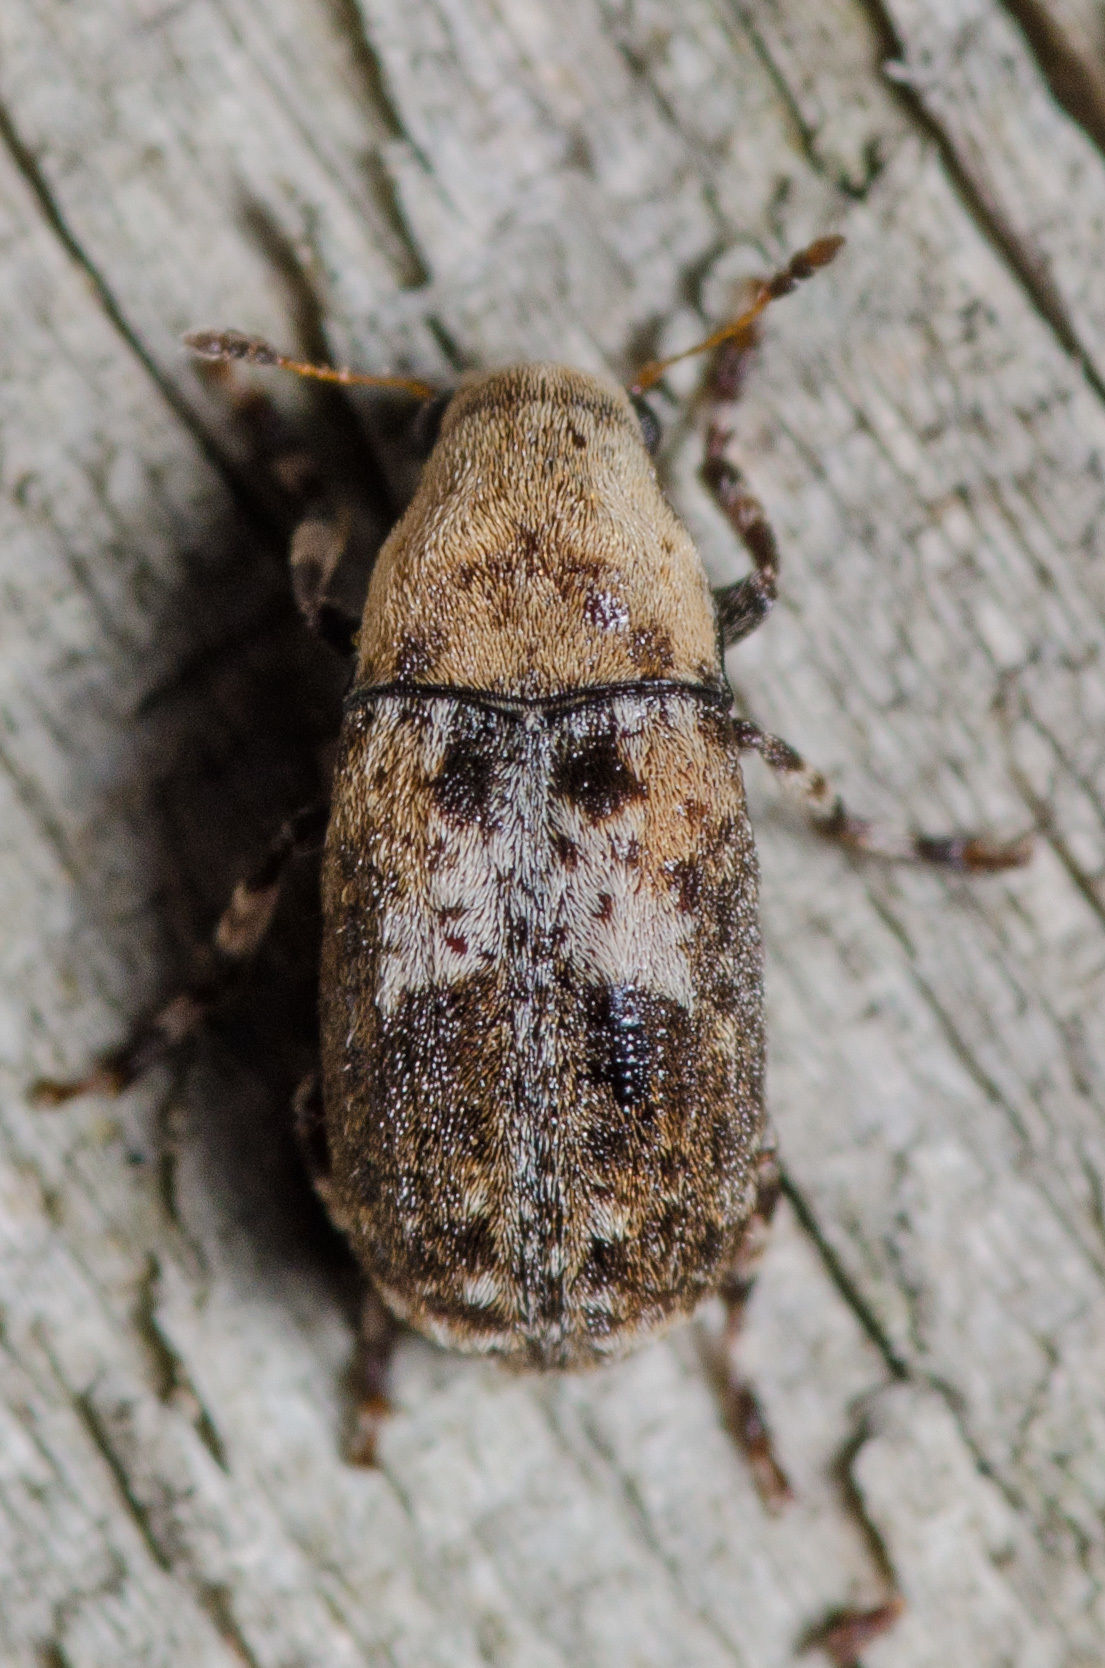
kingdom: Animalia
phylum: Arthropoda
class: Insecta
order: Coleoptera
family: Anthribidae
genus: Euparius
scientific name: Euparius marmoreus
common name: Marbled fungus weevil
